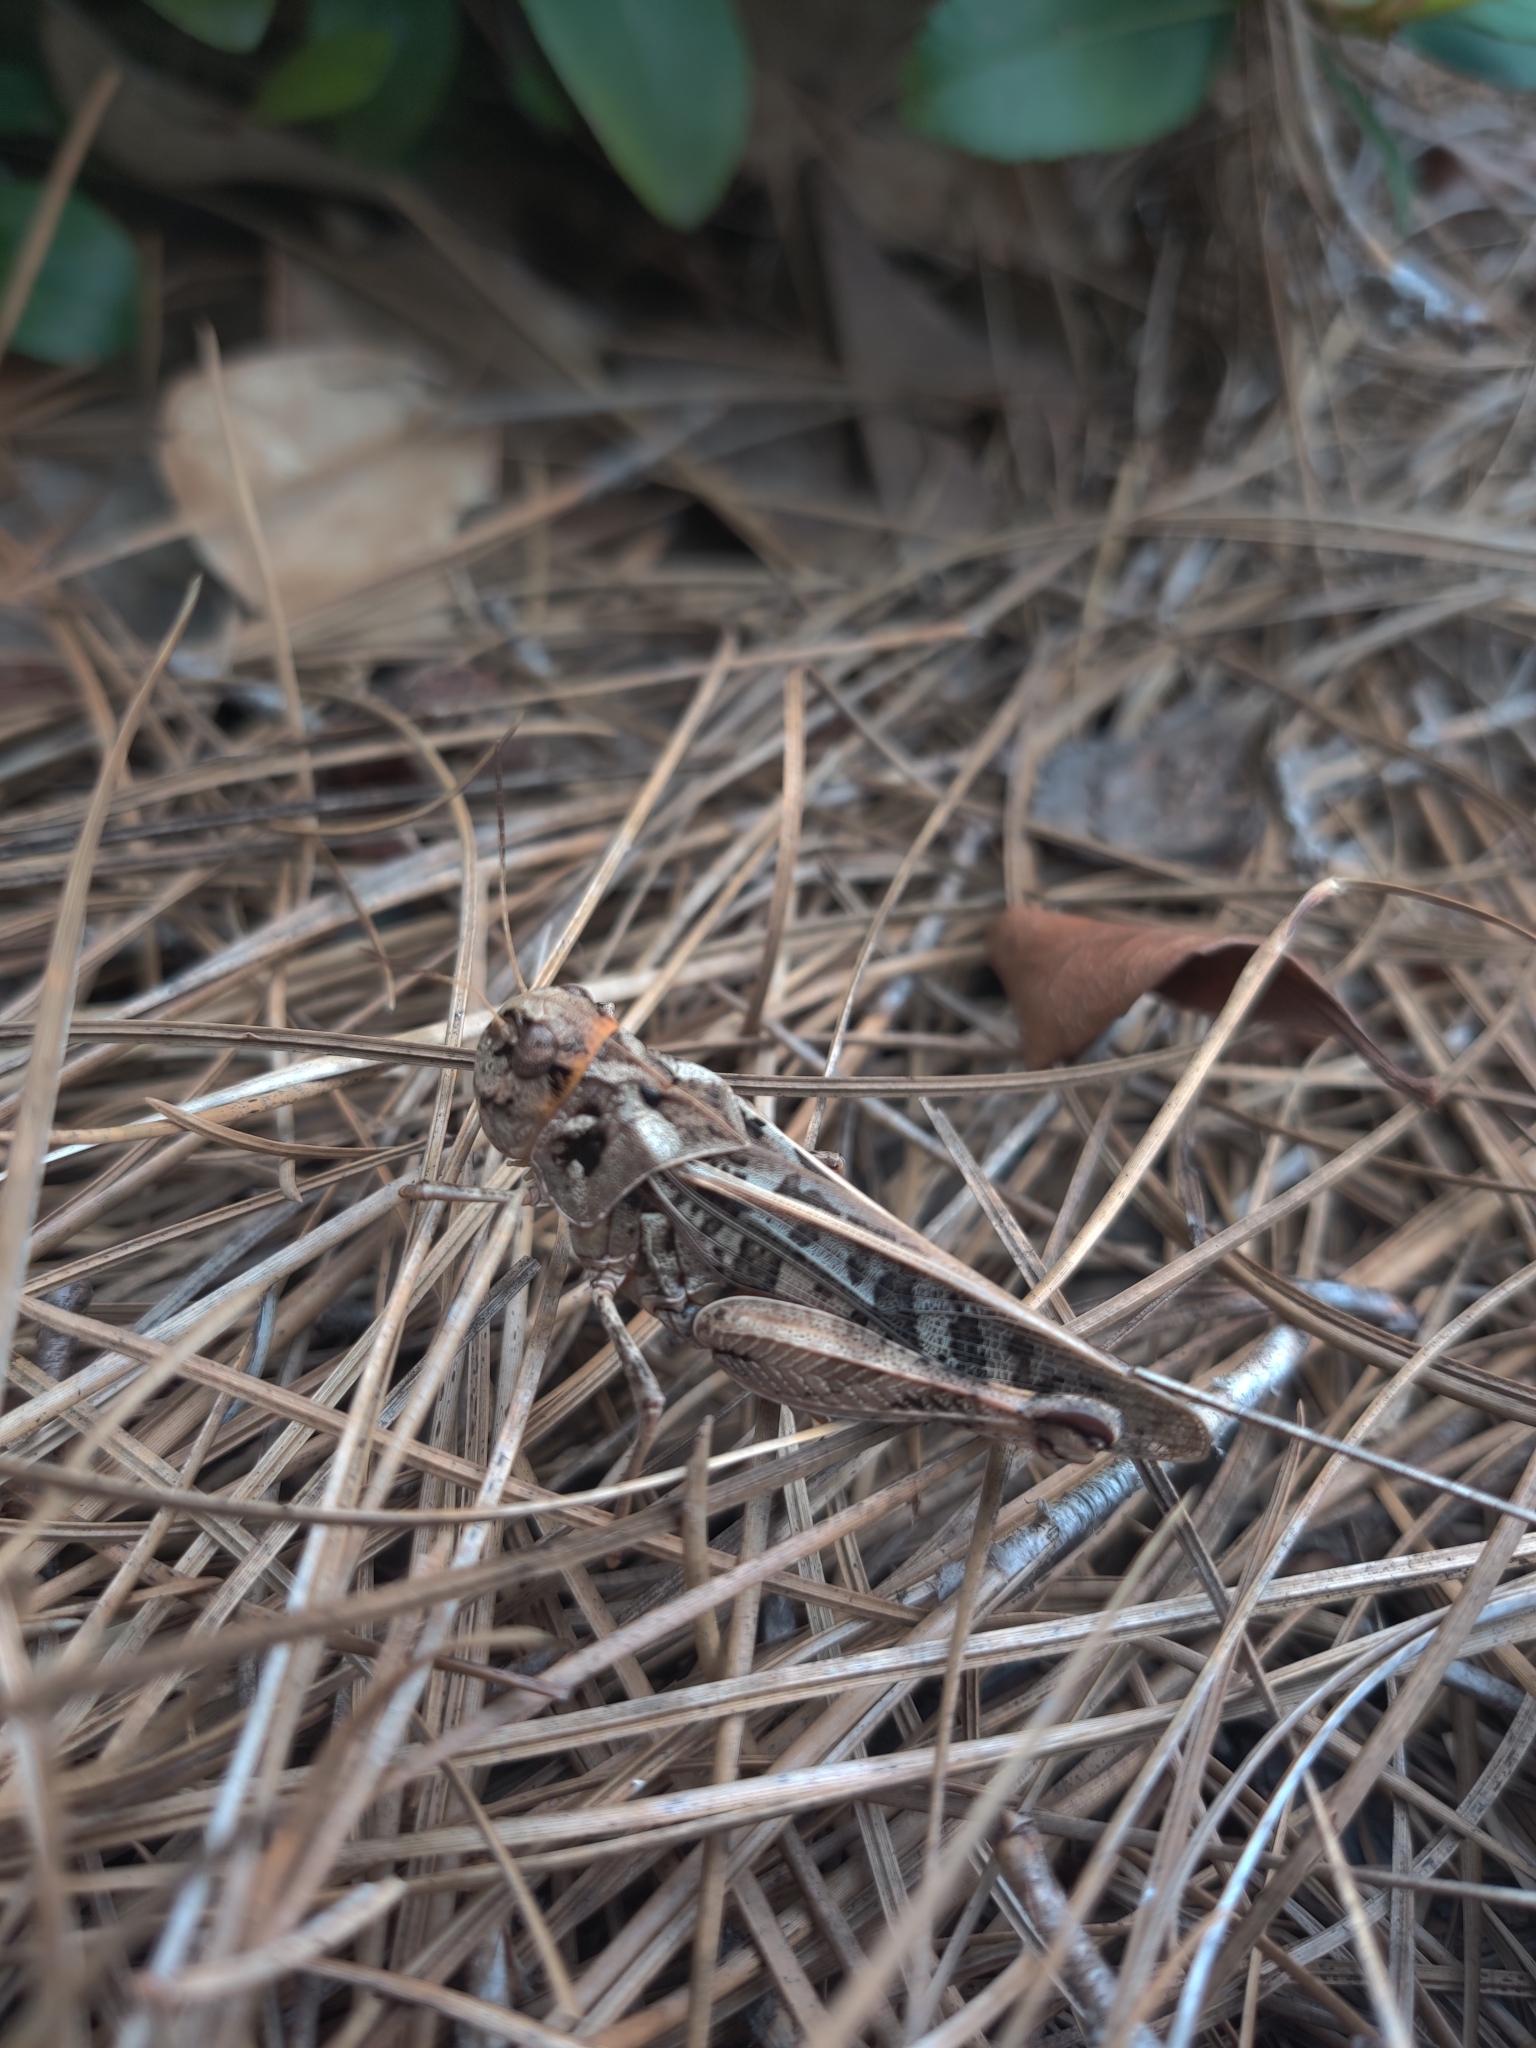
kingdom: Animalia
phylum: Arthropoda
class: Insecta
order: Orthoptera
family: Acrididae
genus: Hippiscus
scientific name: Hippiscus ocelote
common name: Wrinkled grasshopper
